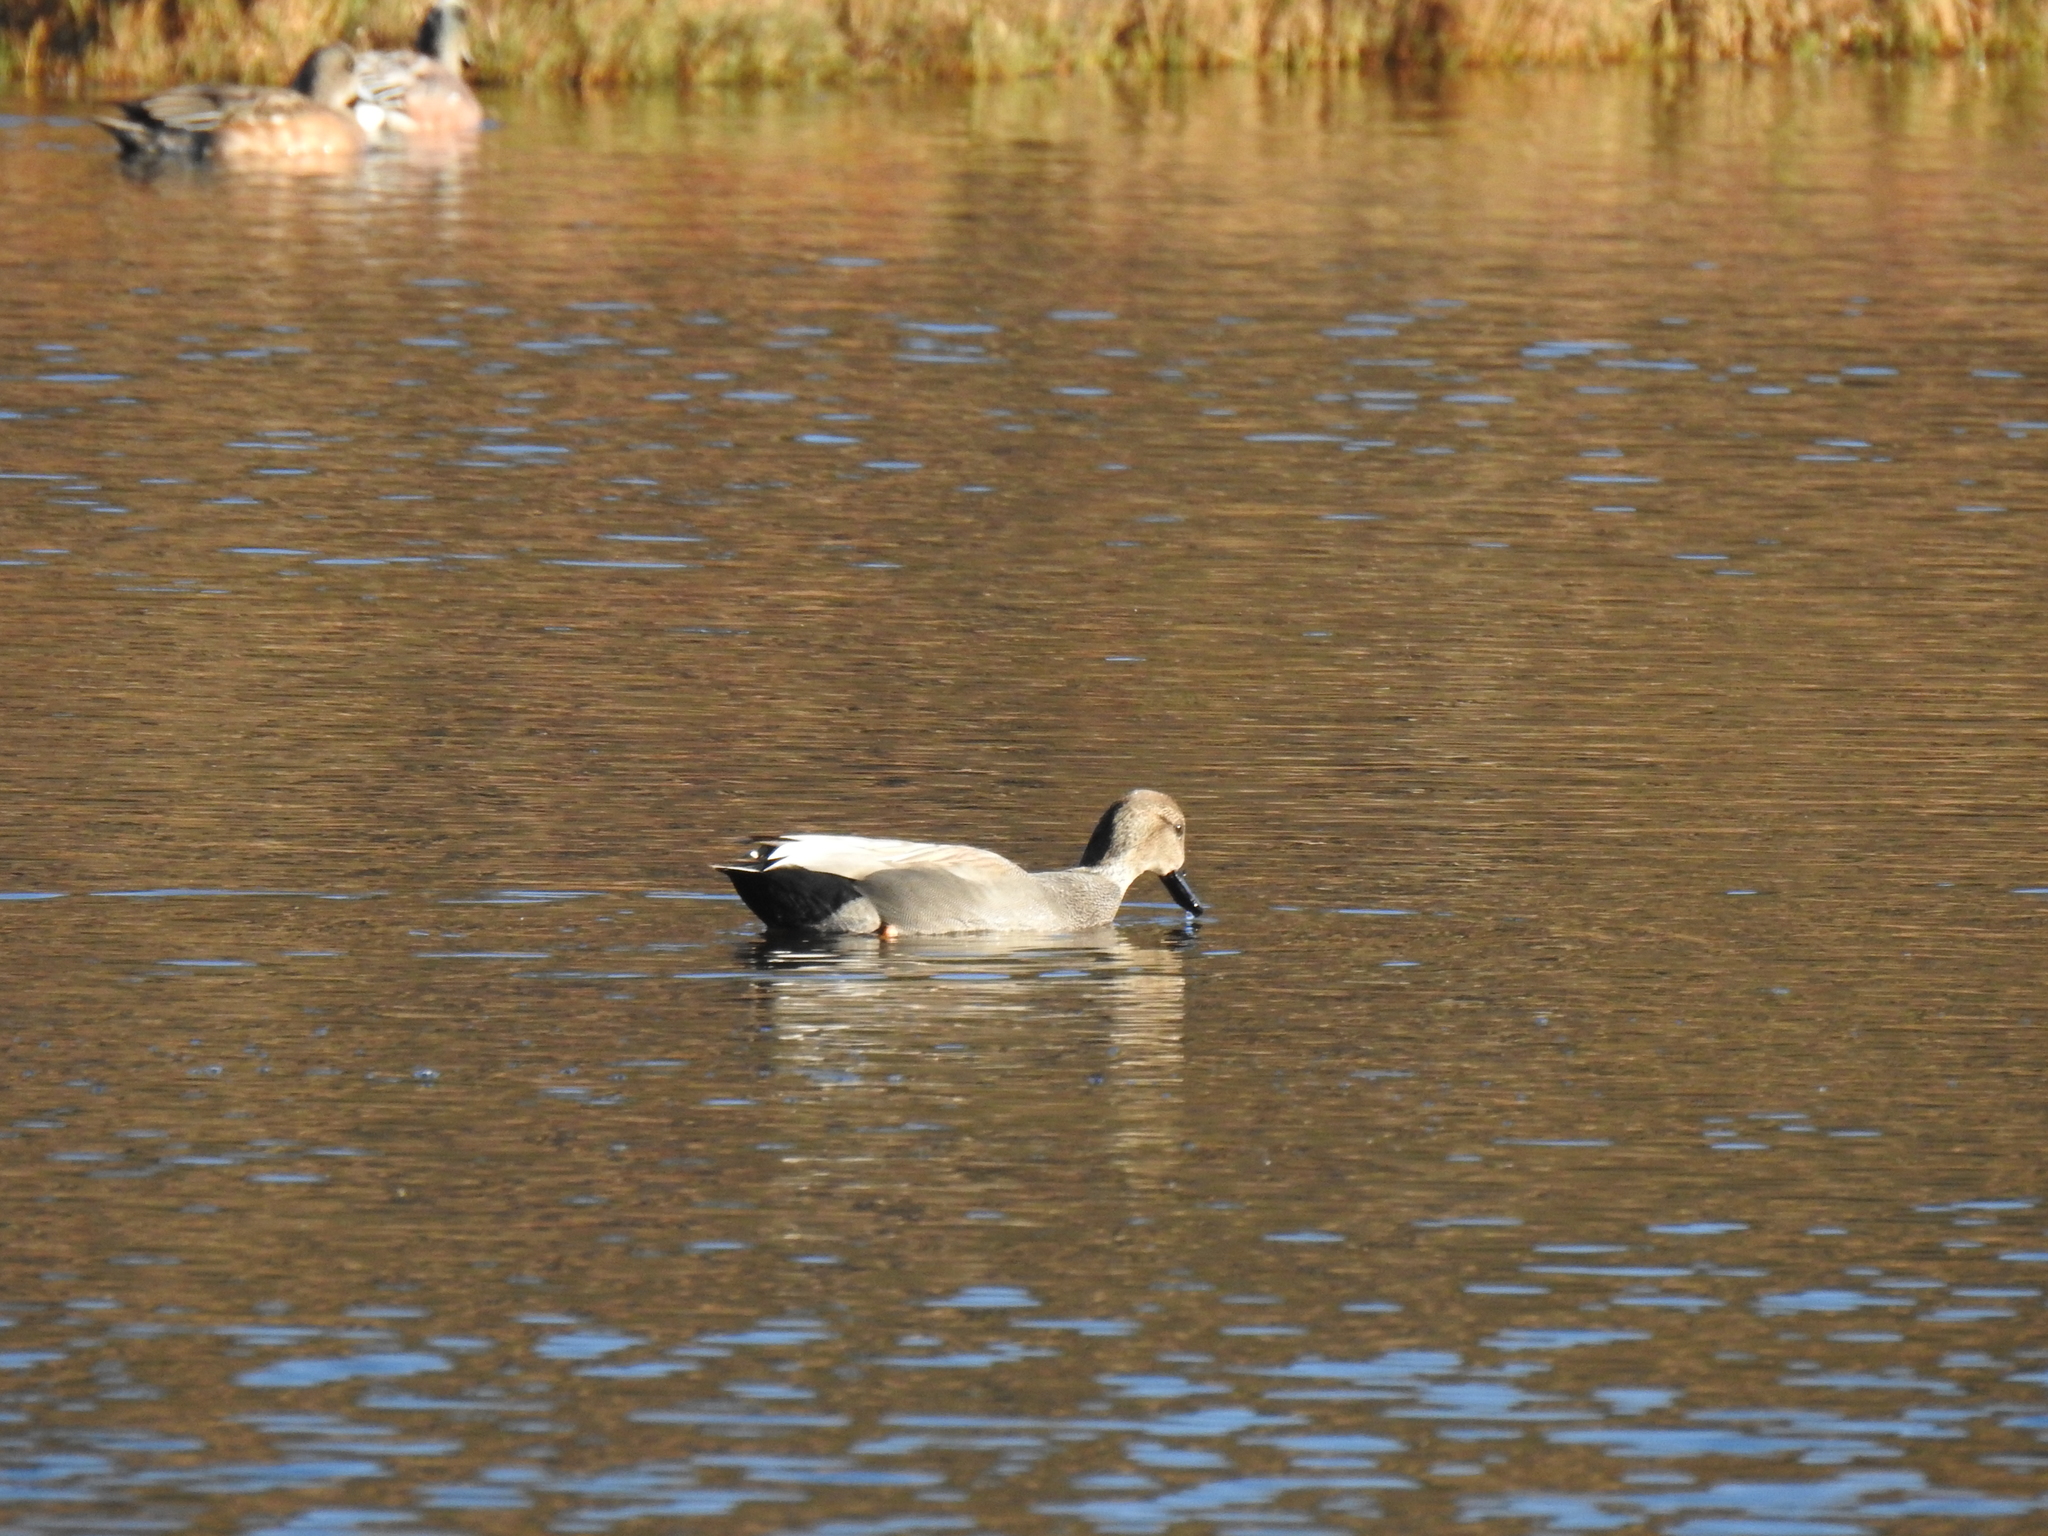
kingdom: Animalia
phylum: Chordata
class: Aves
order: Anseriformes
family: Anatidae
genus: Mareca
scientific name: Mareca strepera
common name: Gadwall
